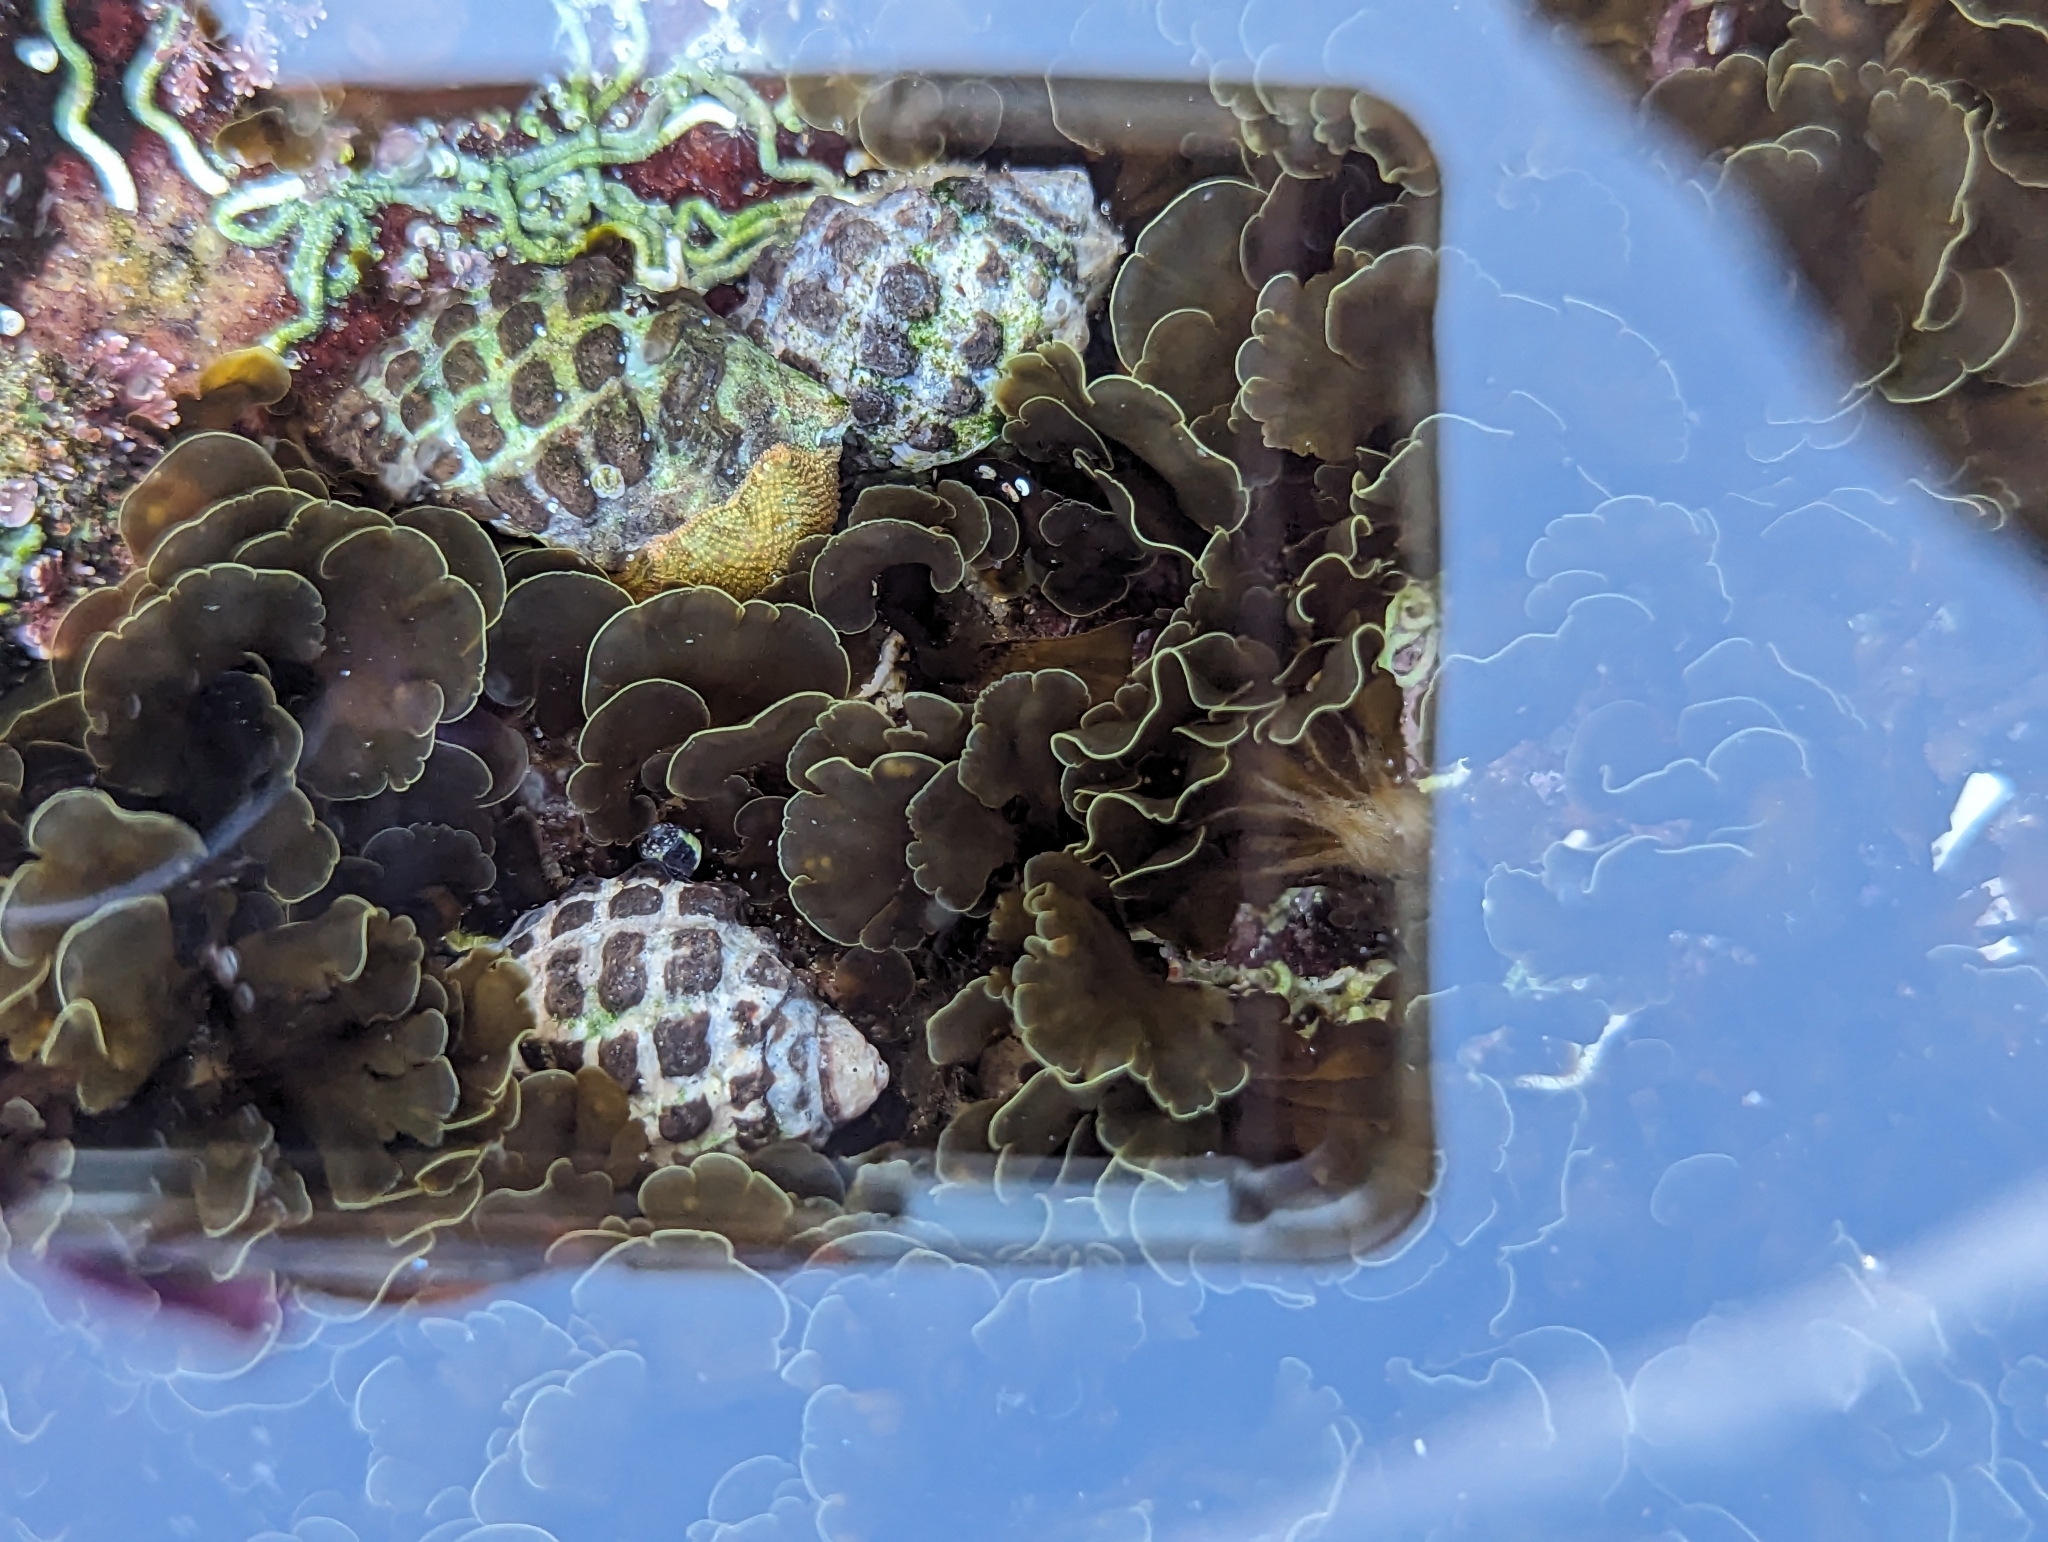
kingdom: Animalia
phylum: Mollusca
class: Gastropoda
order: Neogastropoda
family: Muricidae
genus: Tenguella
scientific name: Tenguella marginalba
